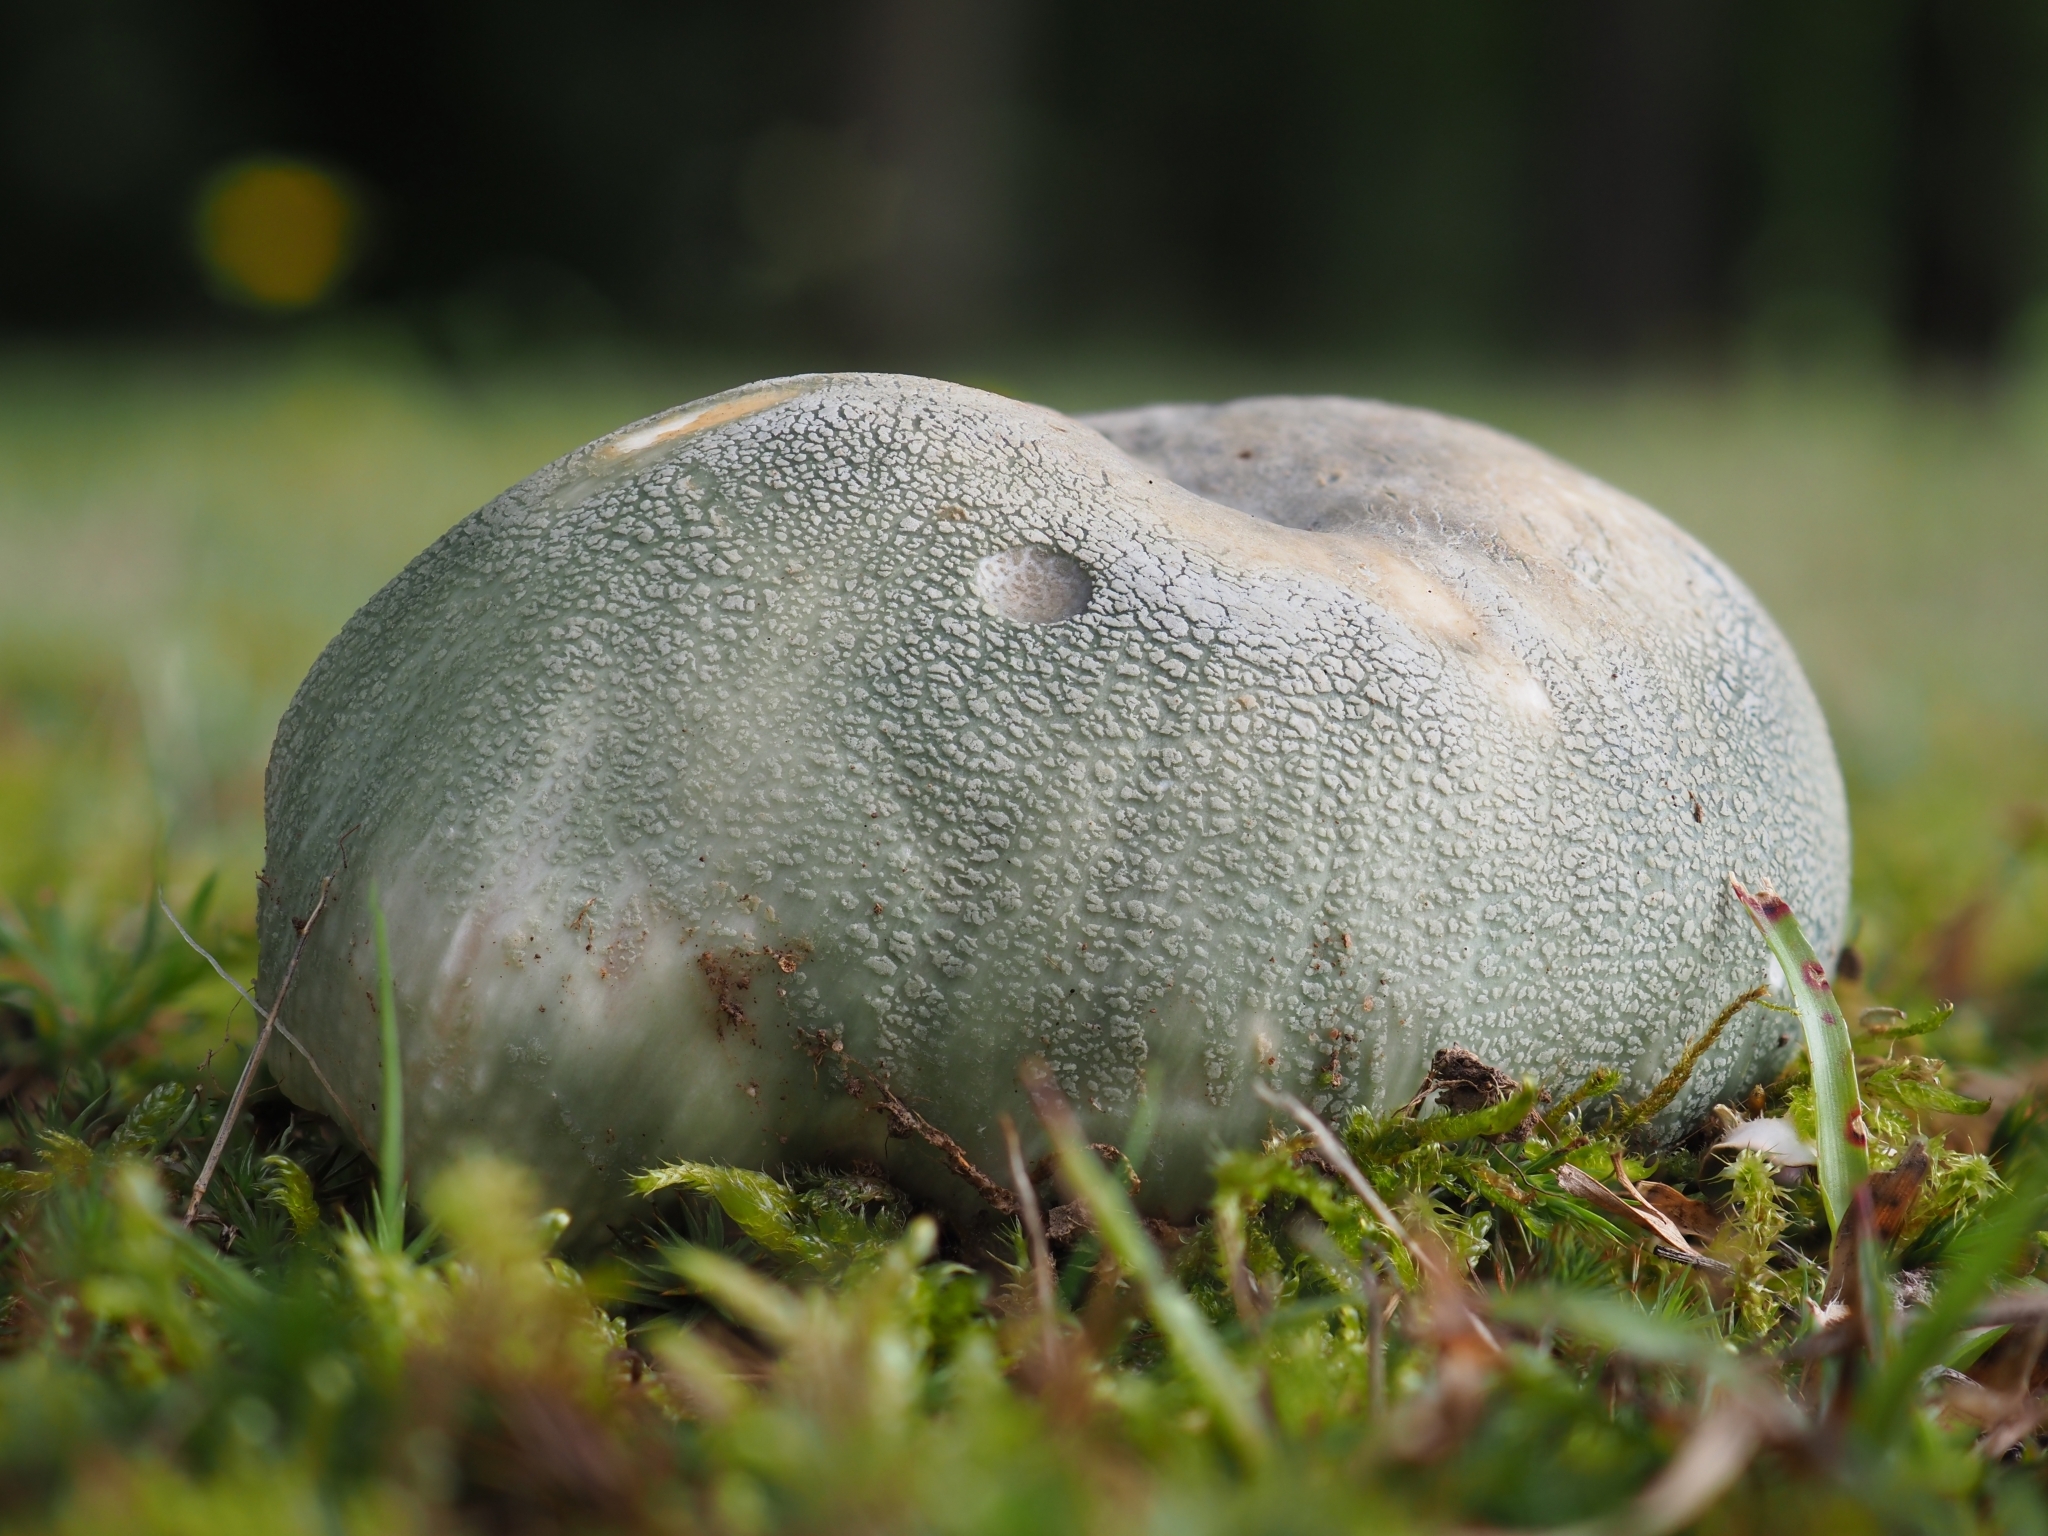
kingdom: Fungi
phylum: Basidiomycota
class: Agaricomycetes
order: Russulales
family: Russulaceae
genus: Russula
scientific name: Russula virescens
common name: Greencracked brittlegill
